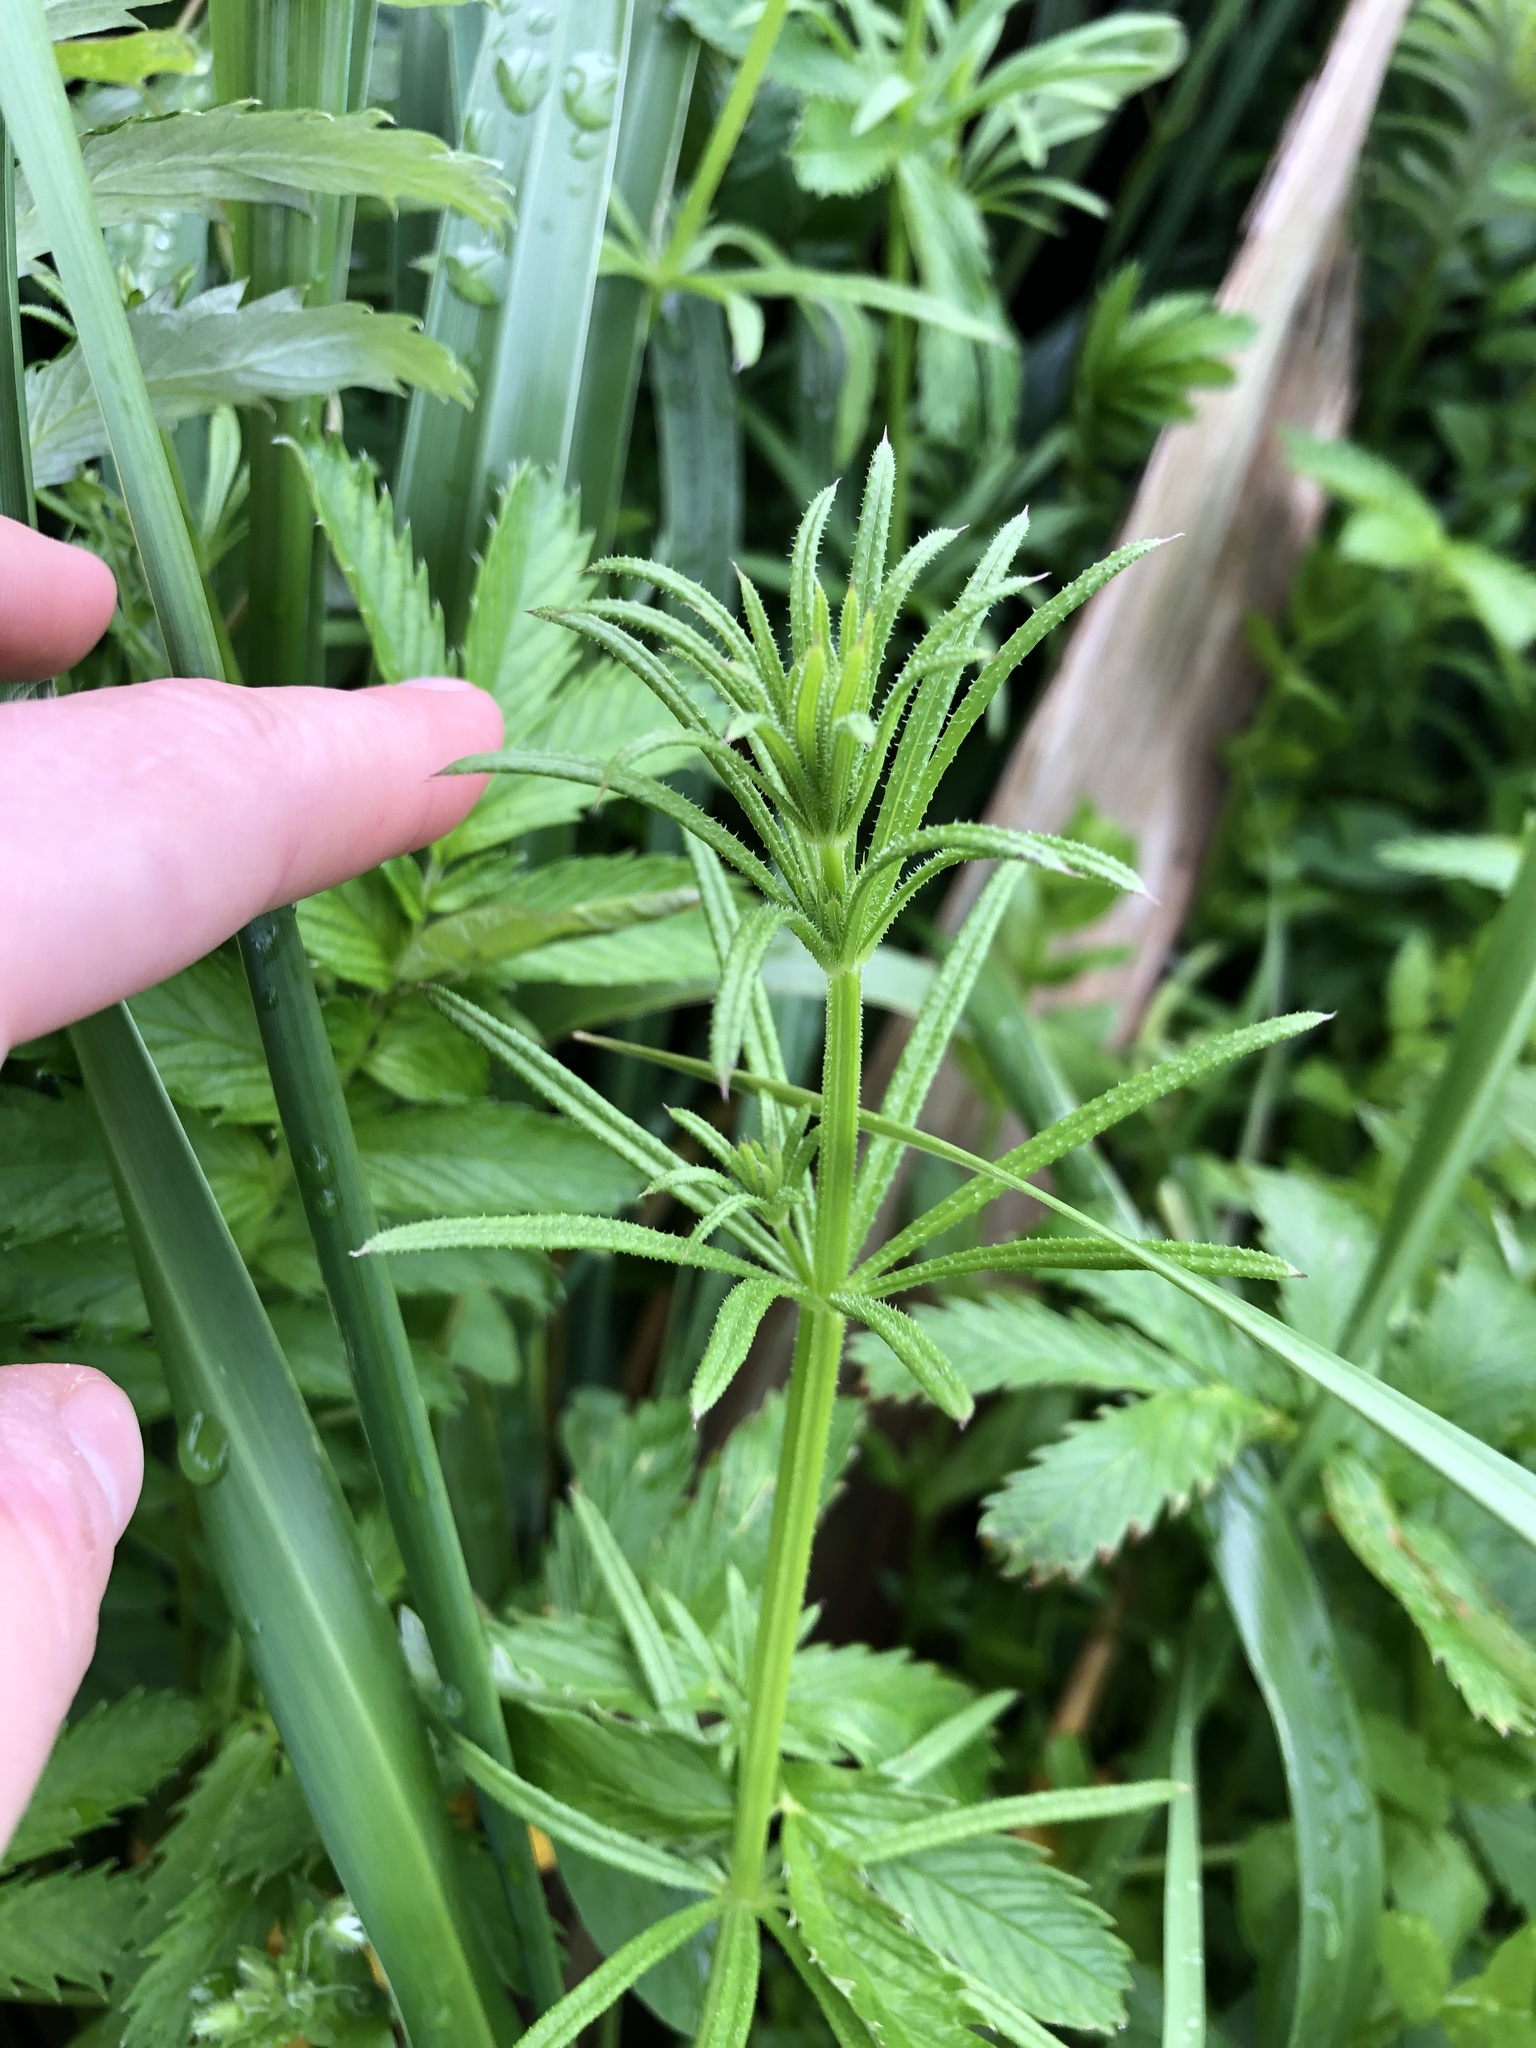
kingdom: Plantae
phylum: Tracheophyta
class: Magnoliopsida
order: Gentianales
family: Rubiaceae
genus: Galium
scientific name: Galium aparine
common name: Cleavers
